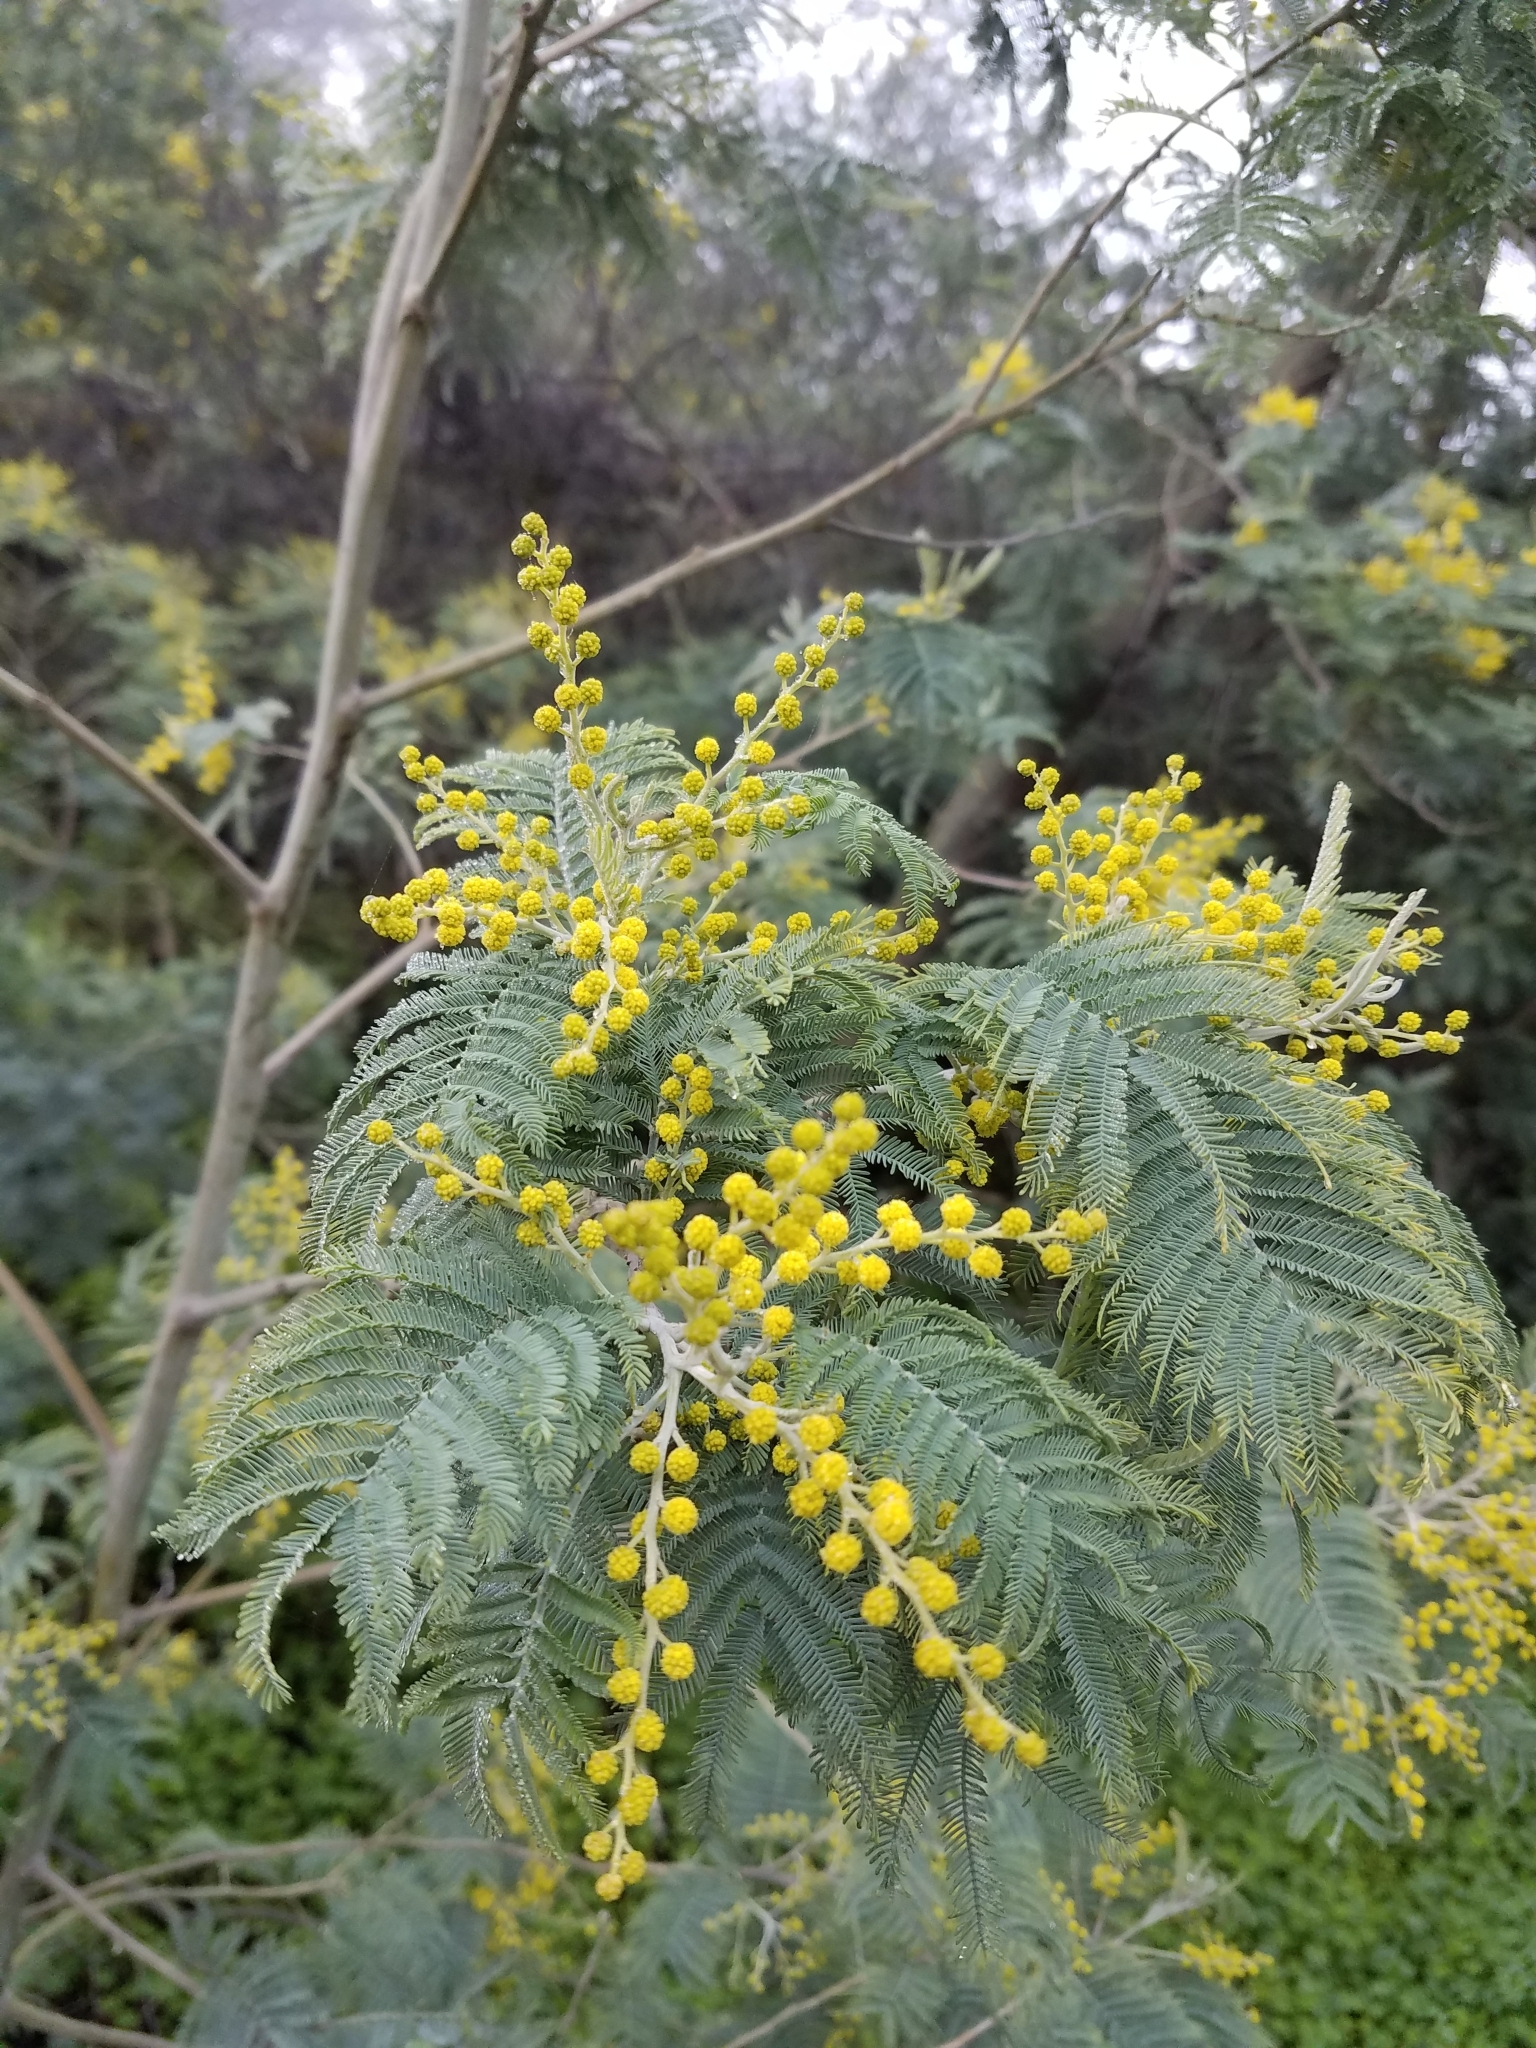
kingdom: Plantae
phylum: Tracheophyta
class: Magnoliopsida
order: Fabales
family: Fabaceae
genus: Acacia
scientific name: Acacia dealbata
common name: Silver wattle
